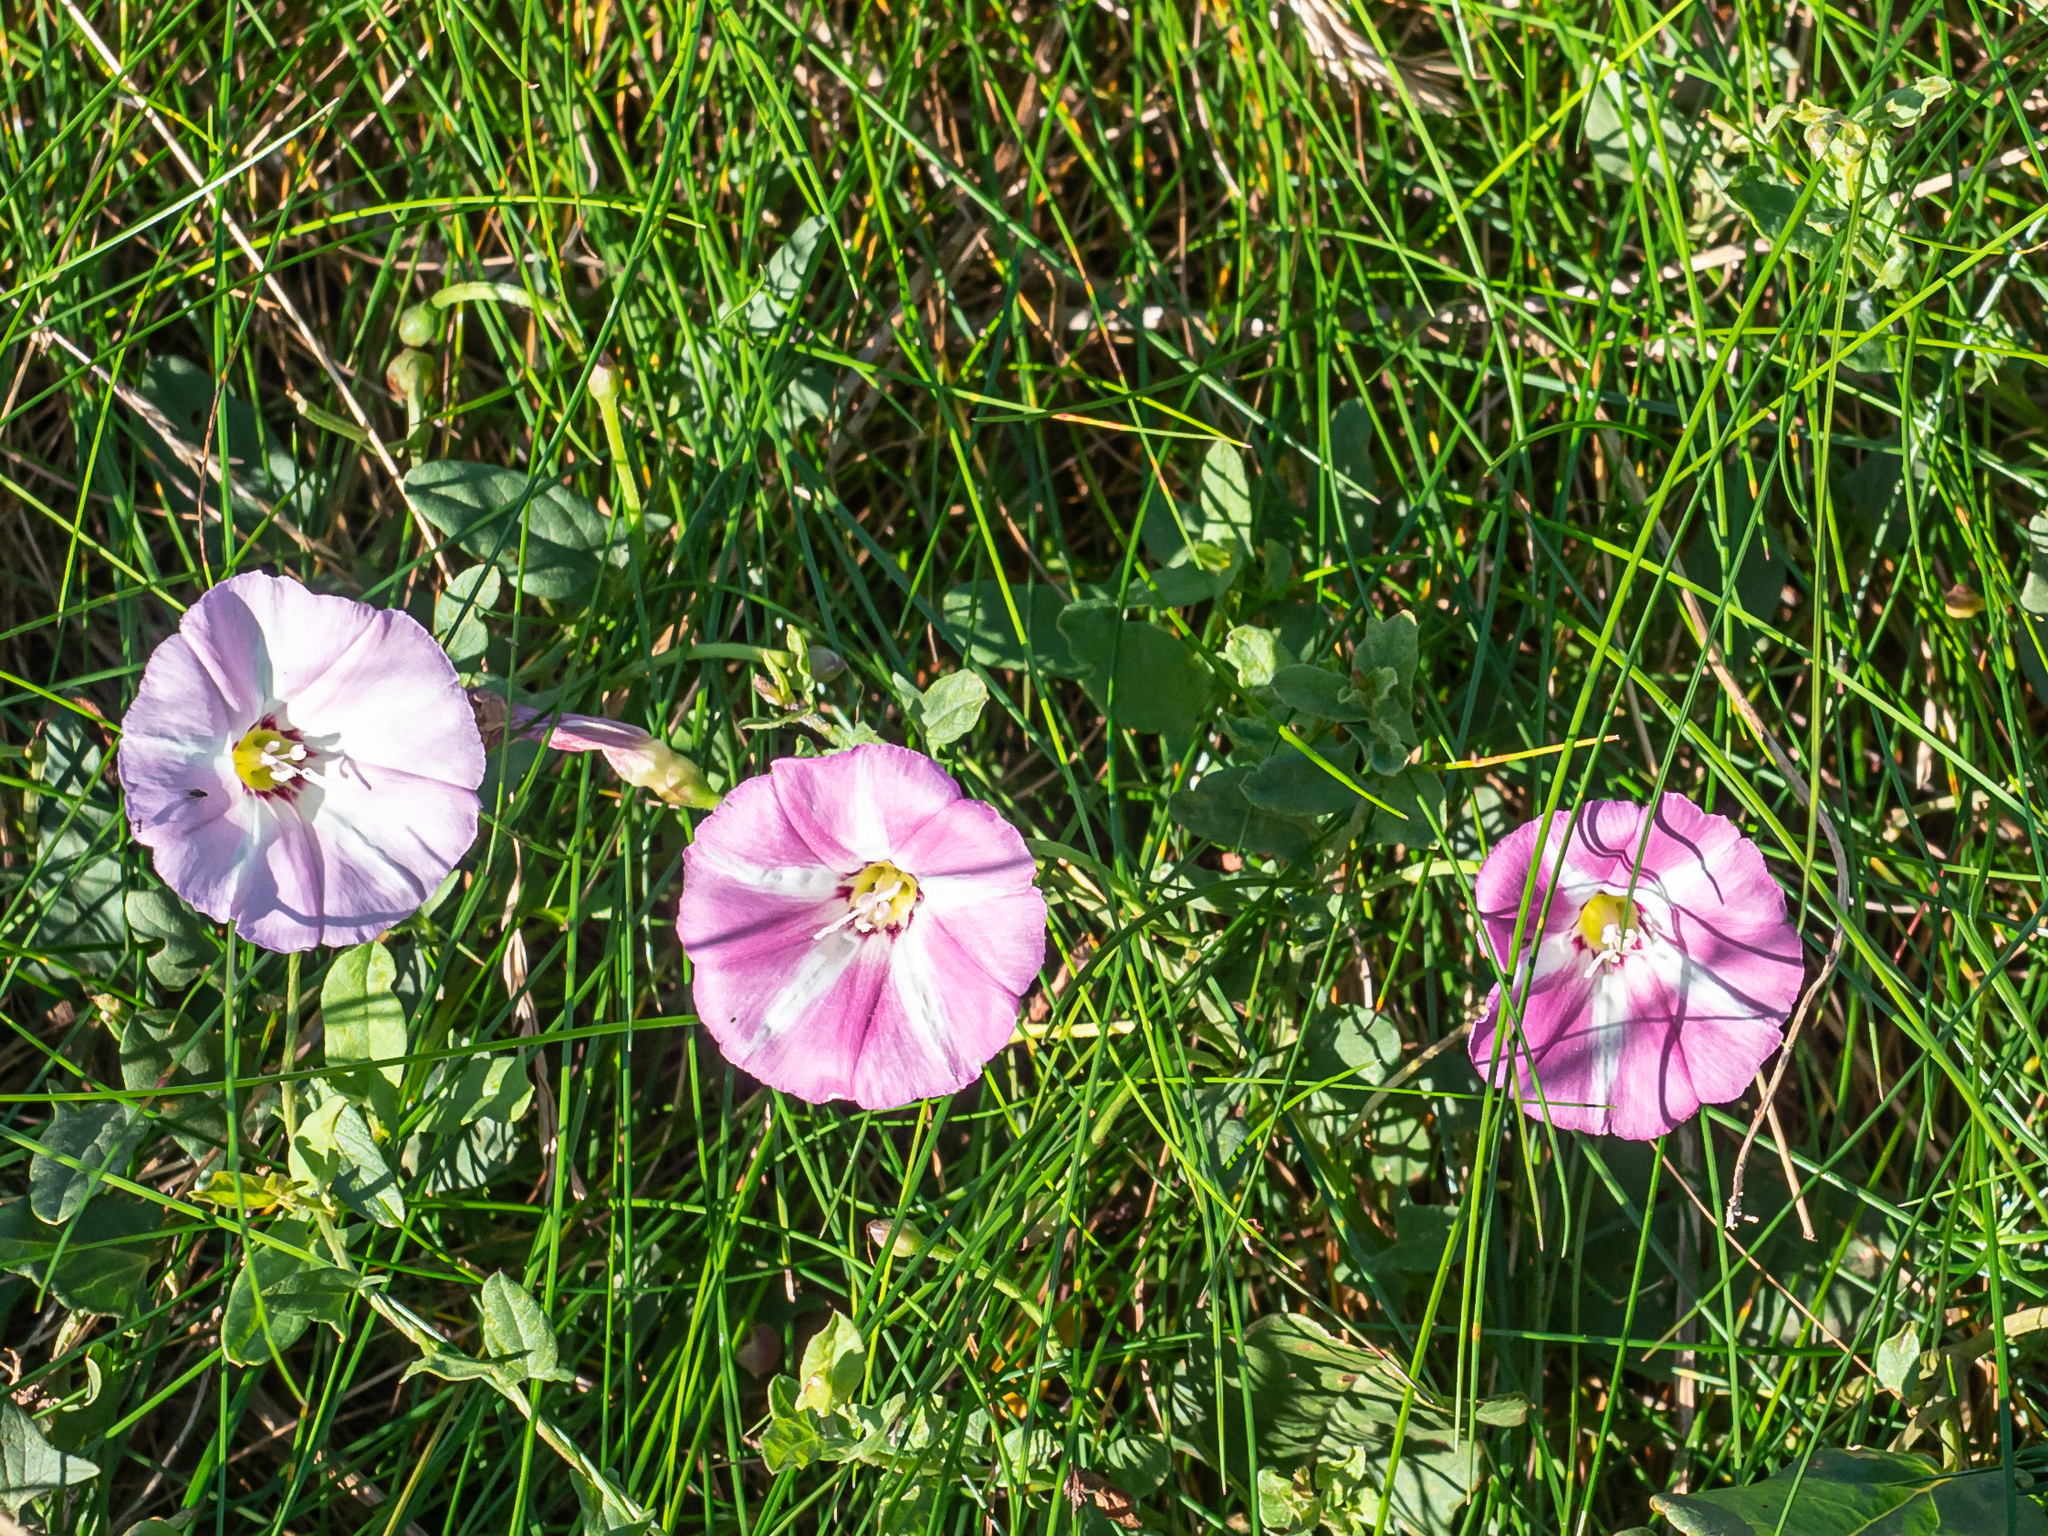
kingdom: Plantae
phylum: Tracheophyta
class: Magnoliopsida
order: Solanales
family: Convolvulaceae
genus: Convolvulus
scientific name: Convolvulus arvensis
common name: Field bindweed
